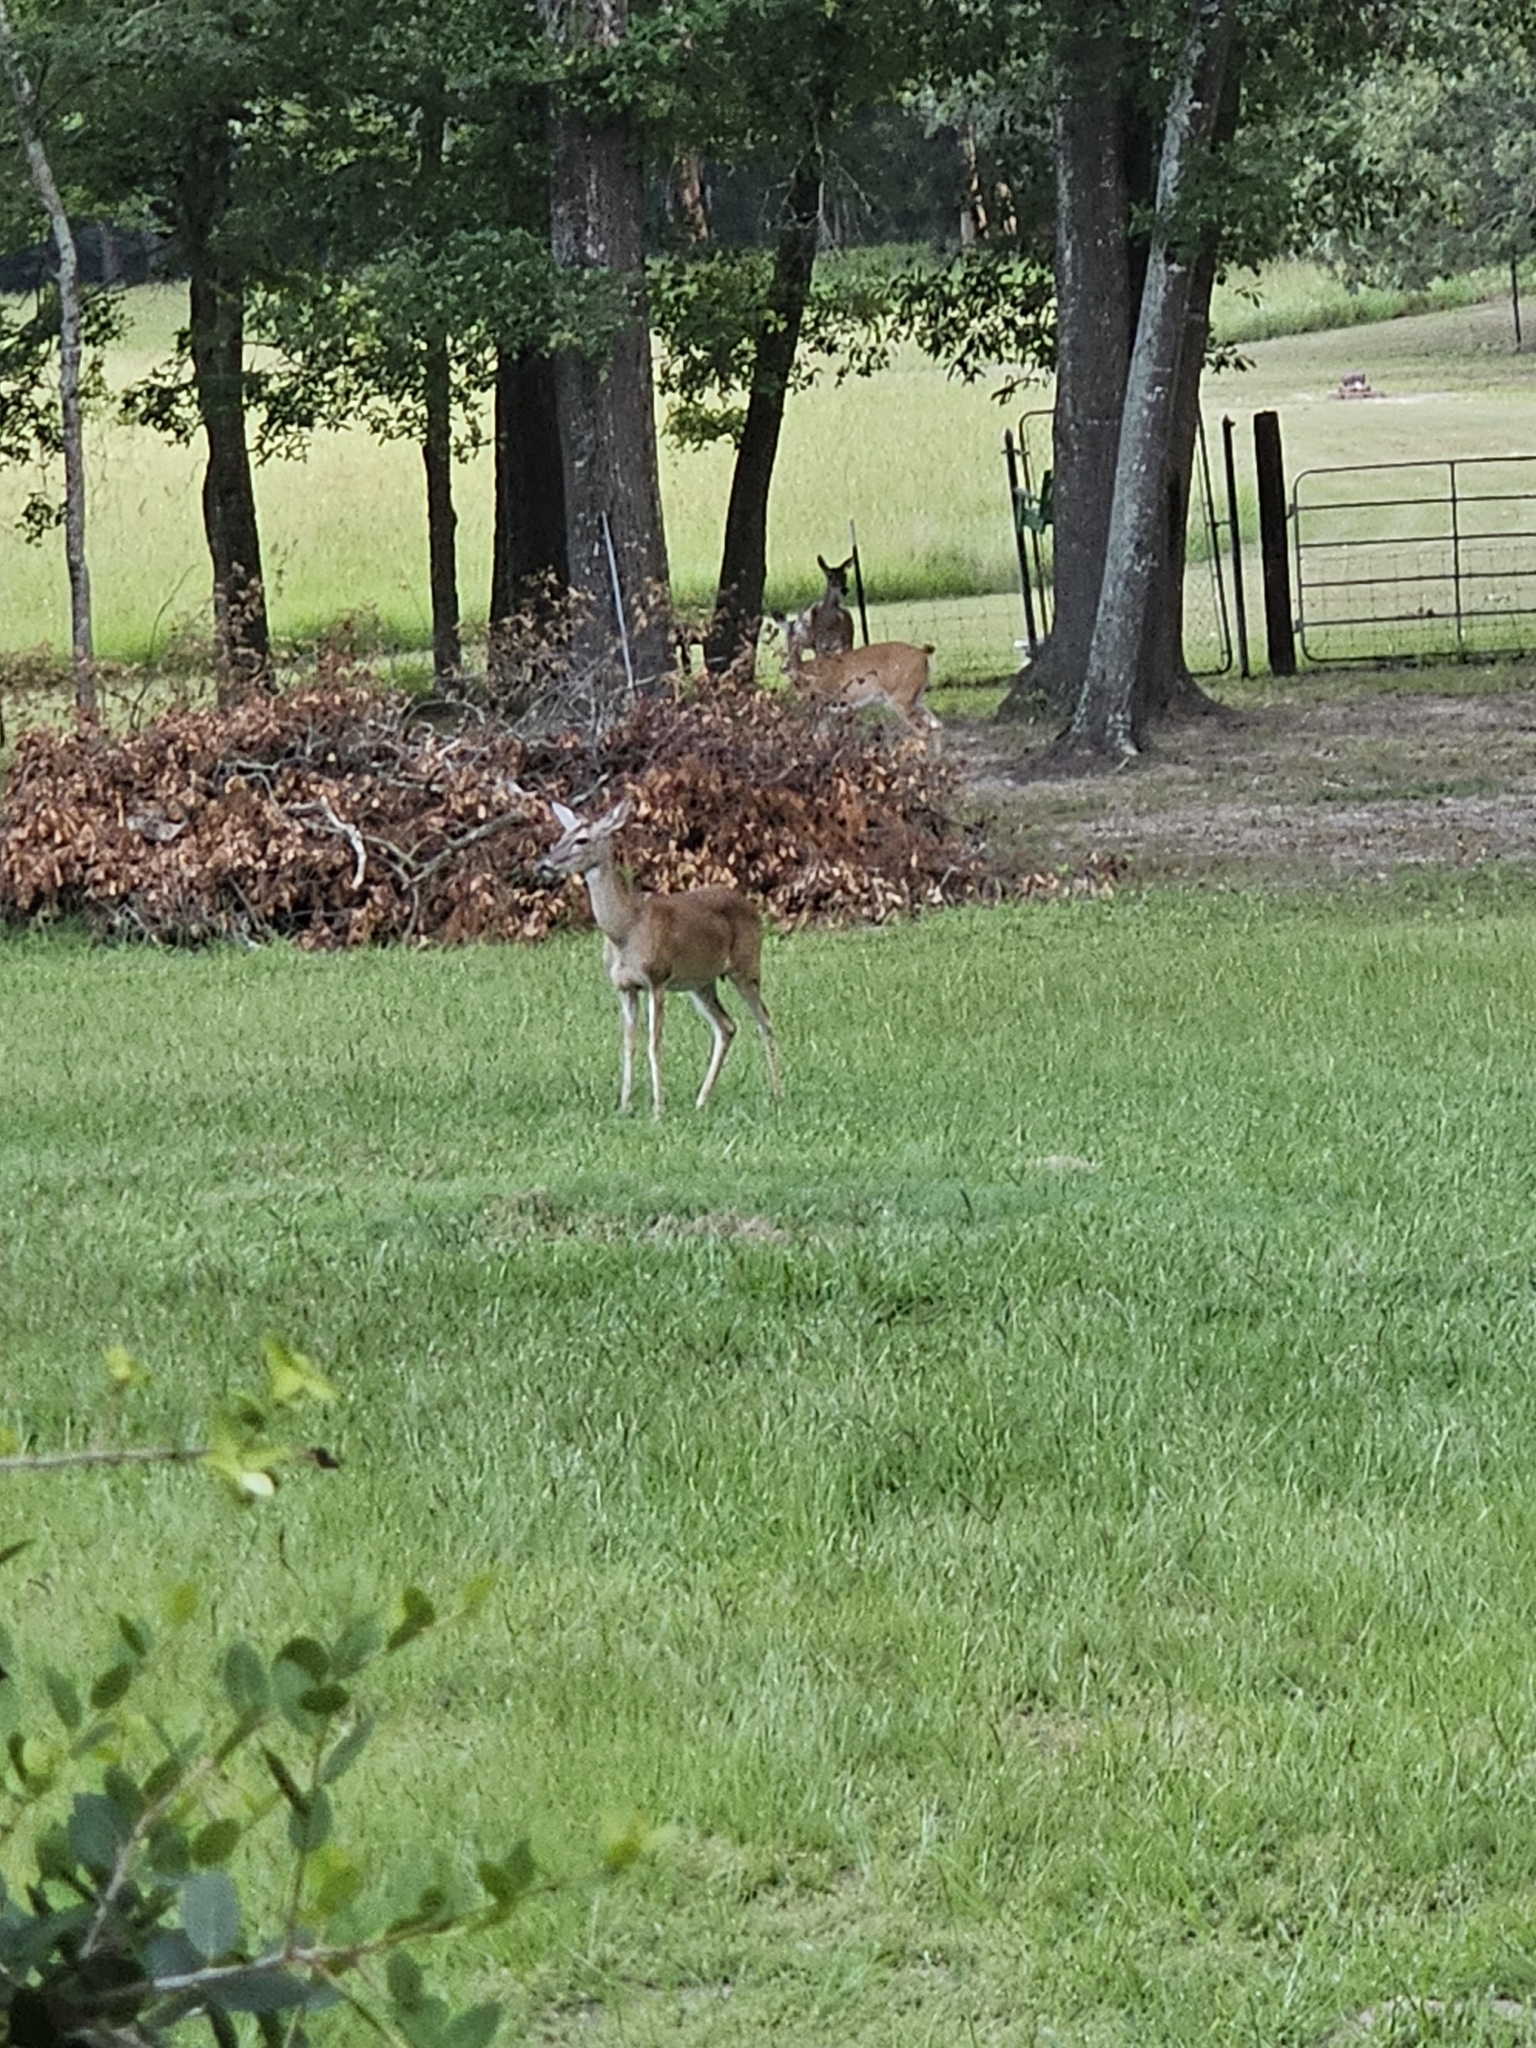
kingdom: Animalia
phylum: Chordata
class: Mammalia
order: Artiodactyla
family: Cervidae
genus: Odocoileus
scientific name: Odocoileus virginianus
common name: White-tailed deer
